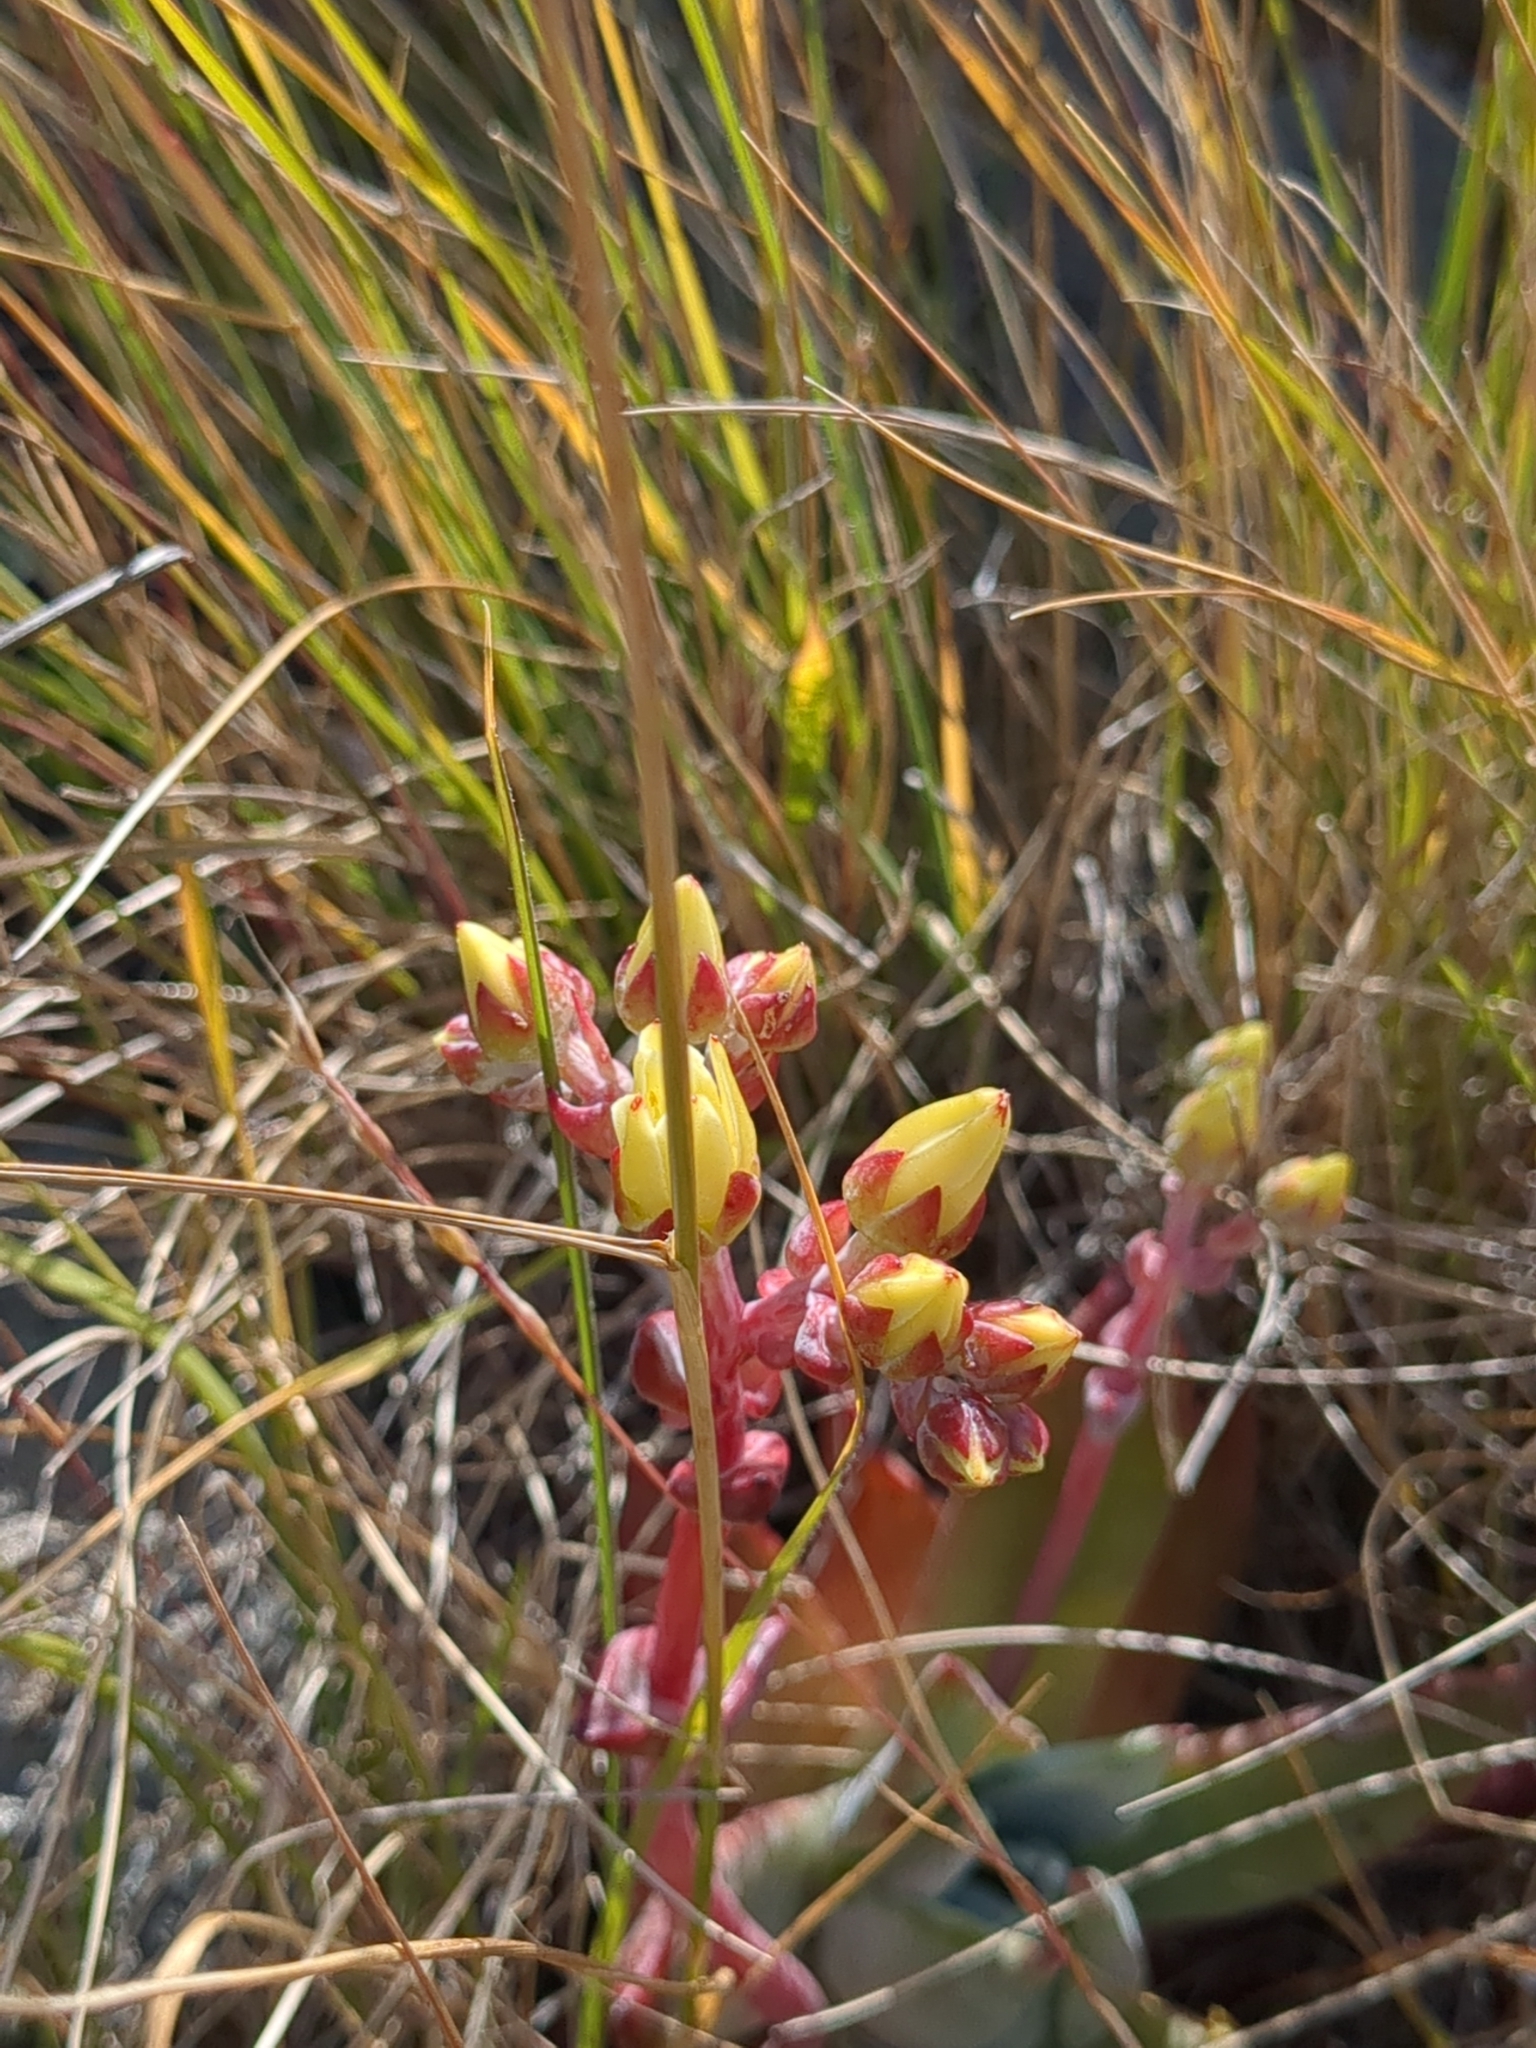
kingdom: Plantae
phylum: Tracheophyta
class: Magnoliopsida
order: Saxifragales
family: Crassulaceae
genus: Dudleya
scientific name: Dudleya farinosa
